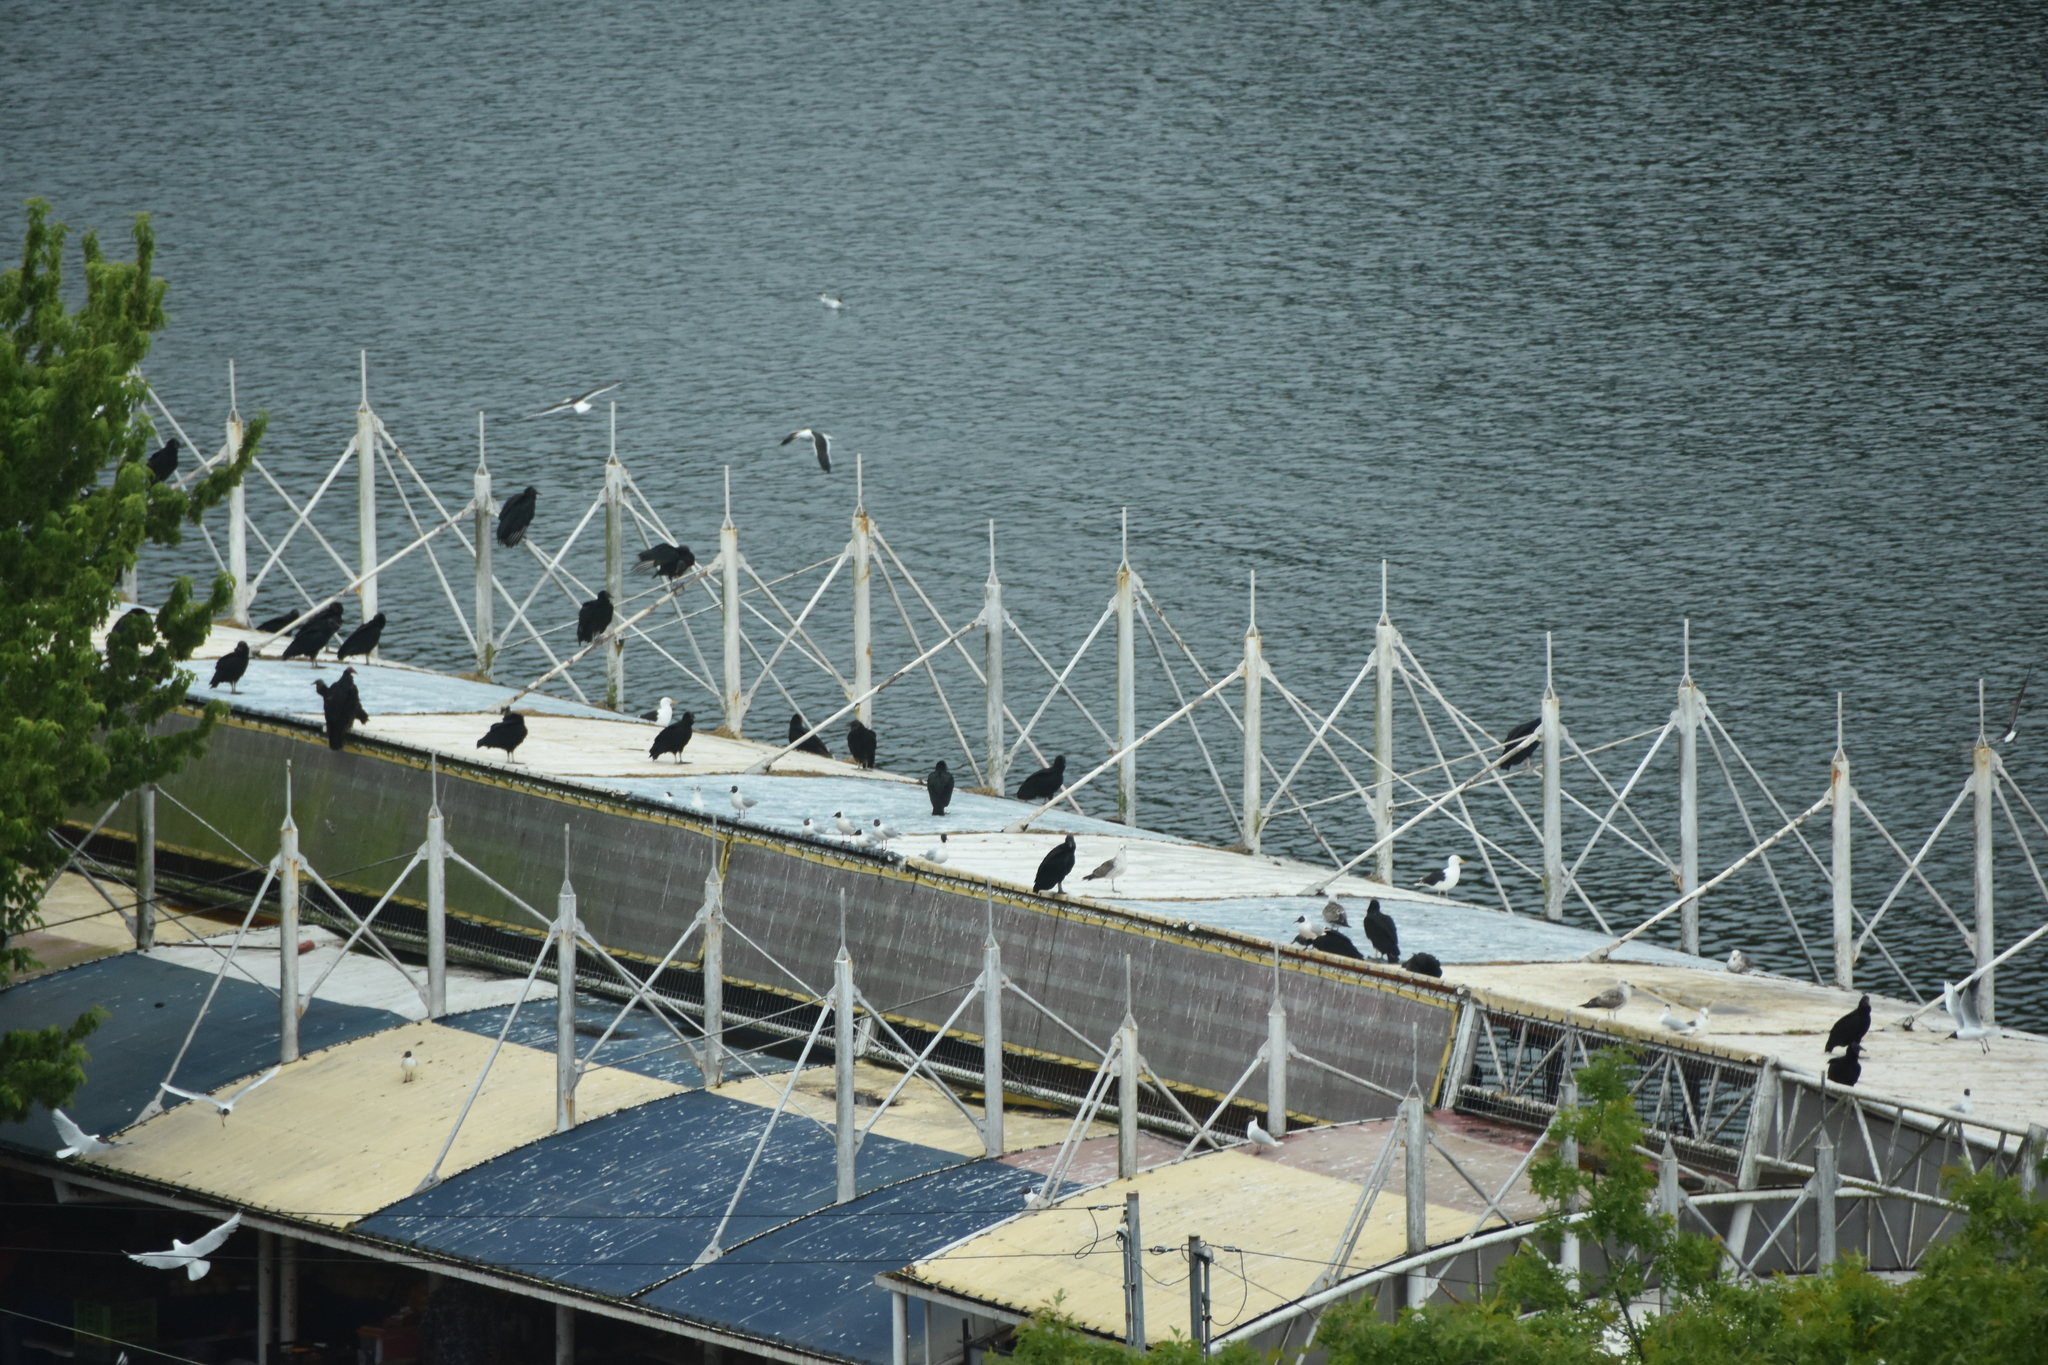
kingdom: Animalia
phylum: Chordata
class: Aves
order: Accipitriformes
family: Cathartidae
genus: Coragyps
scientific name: Coragyps atratus
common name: Black vulture
